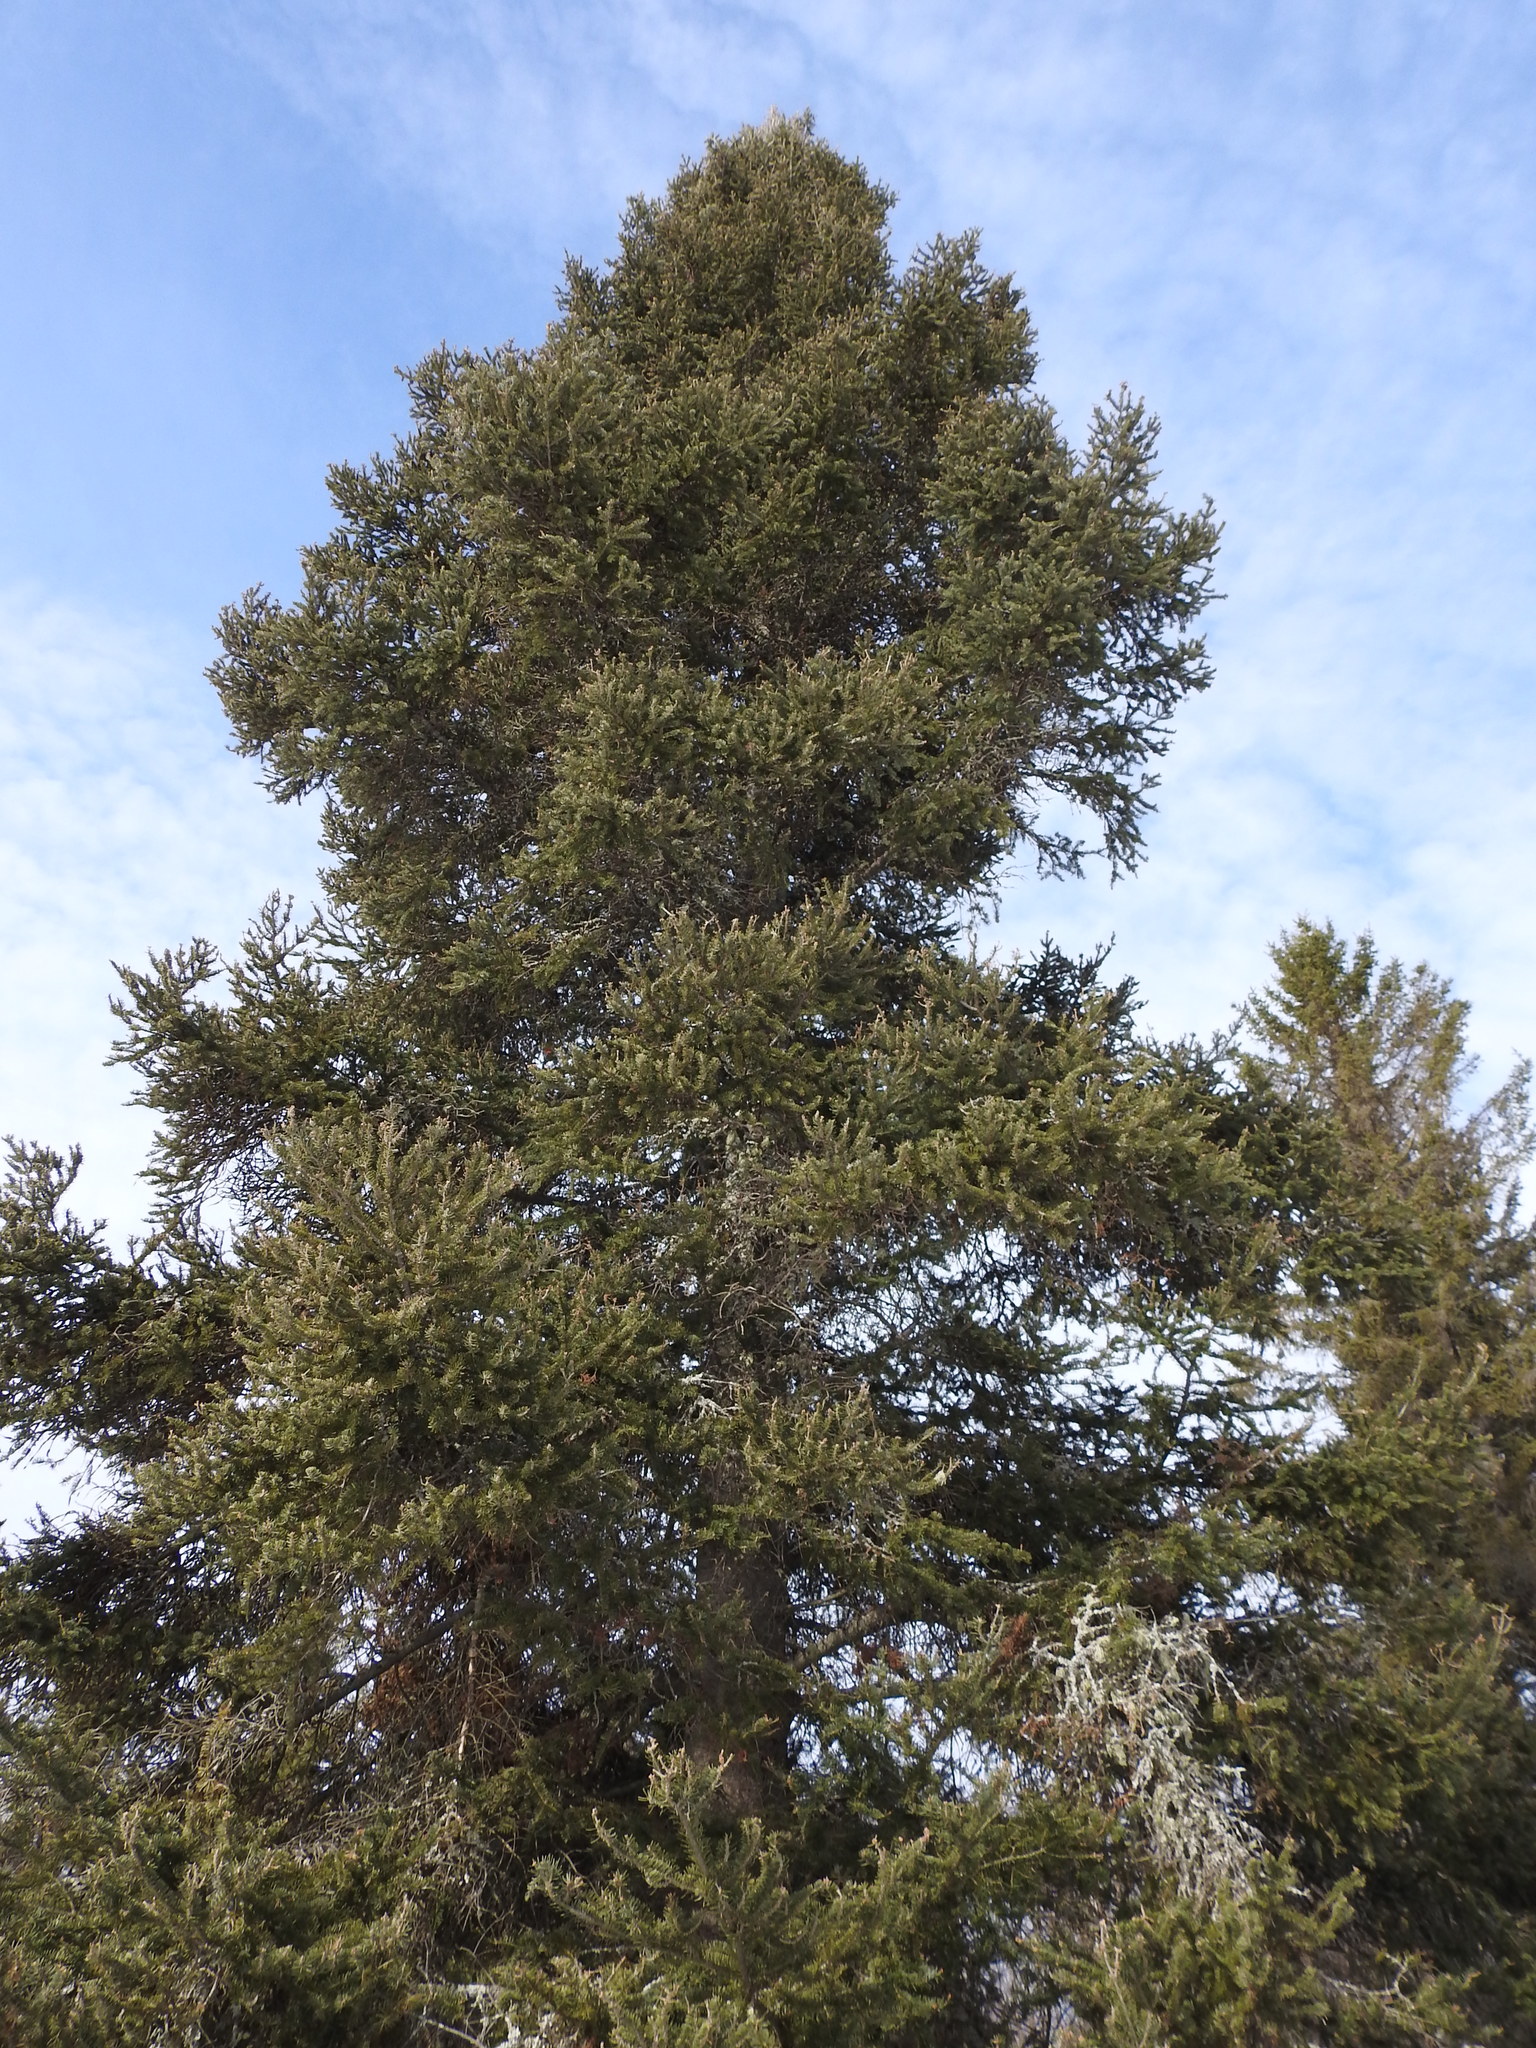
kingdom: Plantae
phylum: Tracheophyta
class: Pinopsida
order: Pinales
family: Pinaceae
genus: Picea
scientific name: Picea glauca
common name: White spruce
